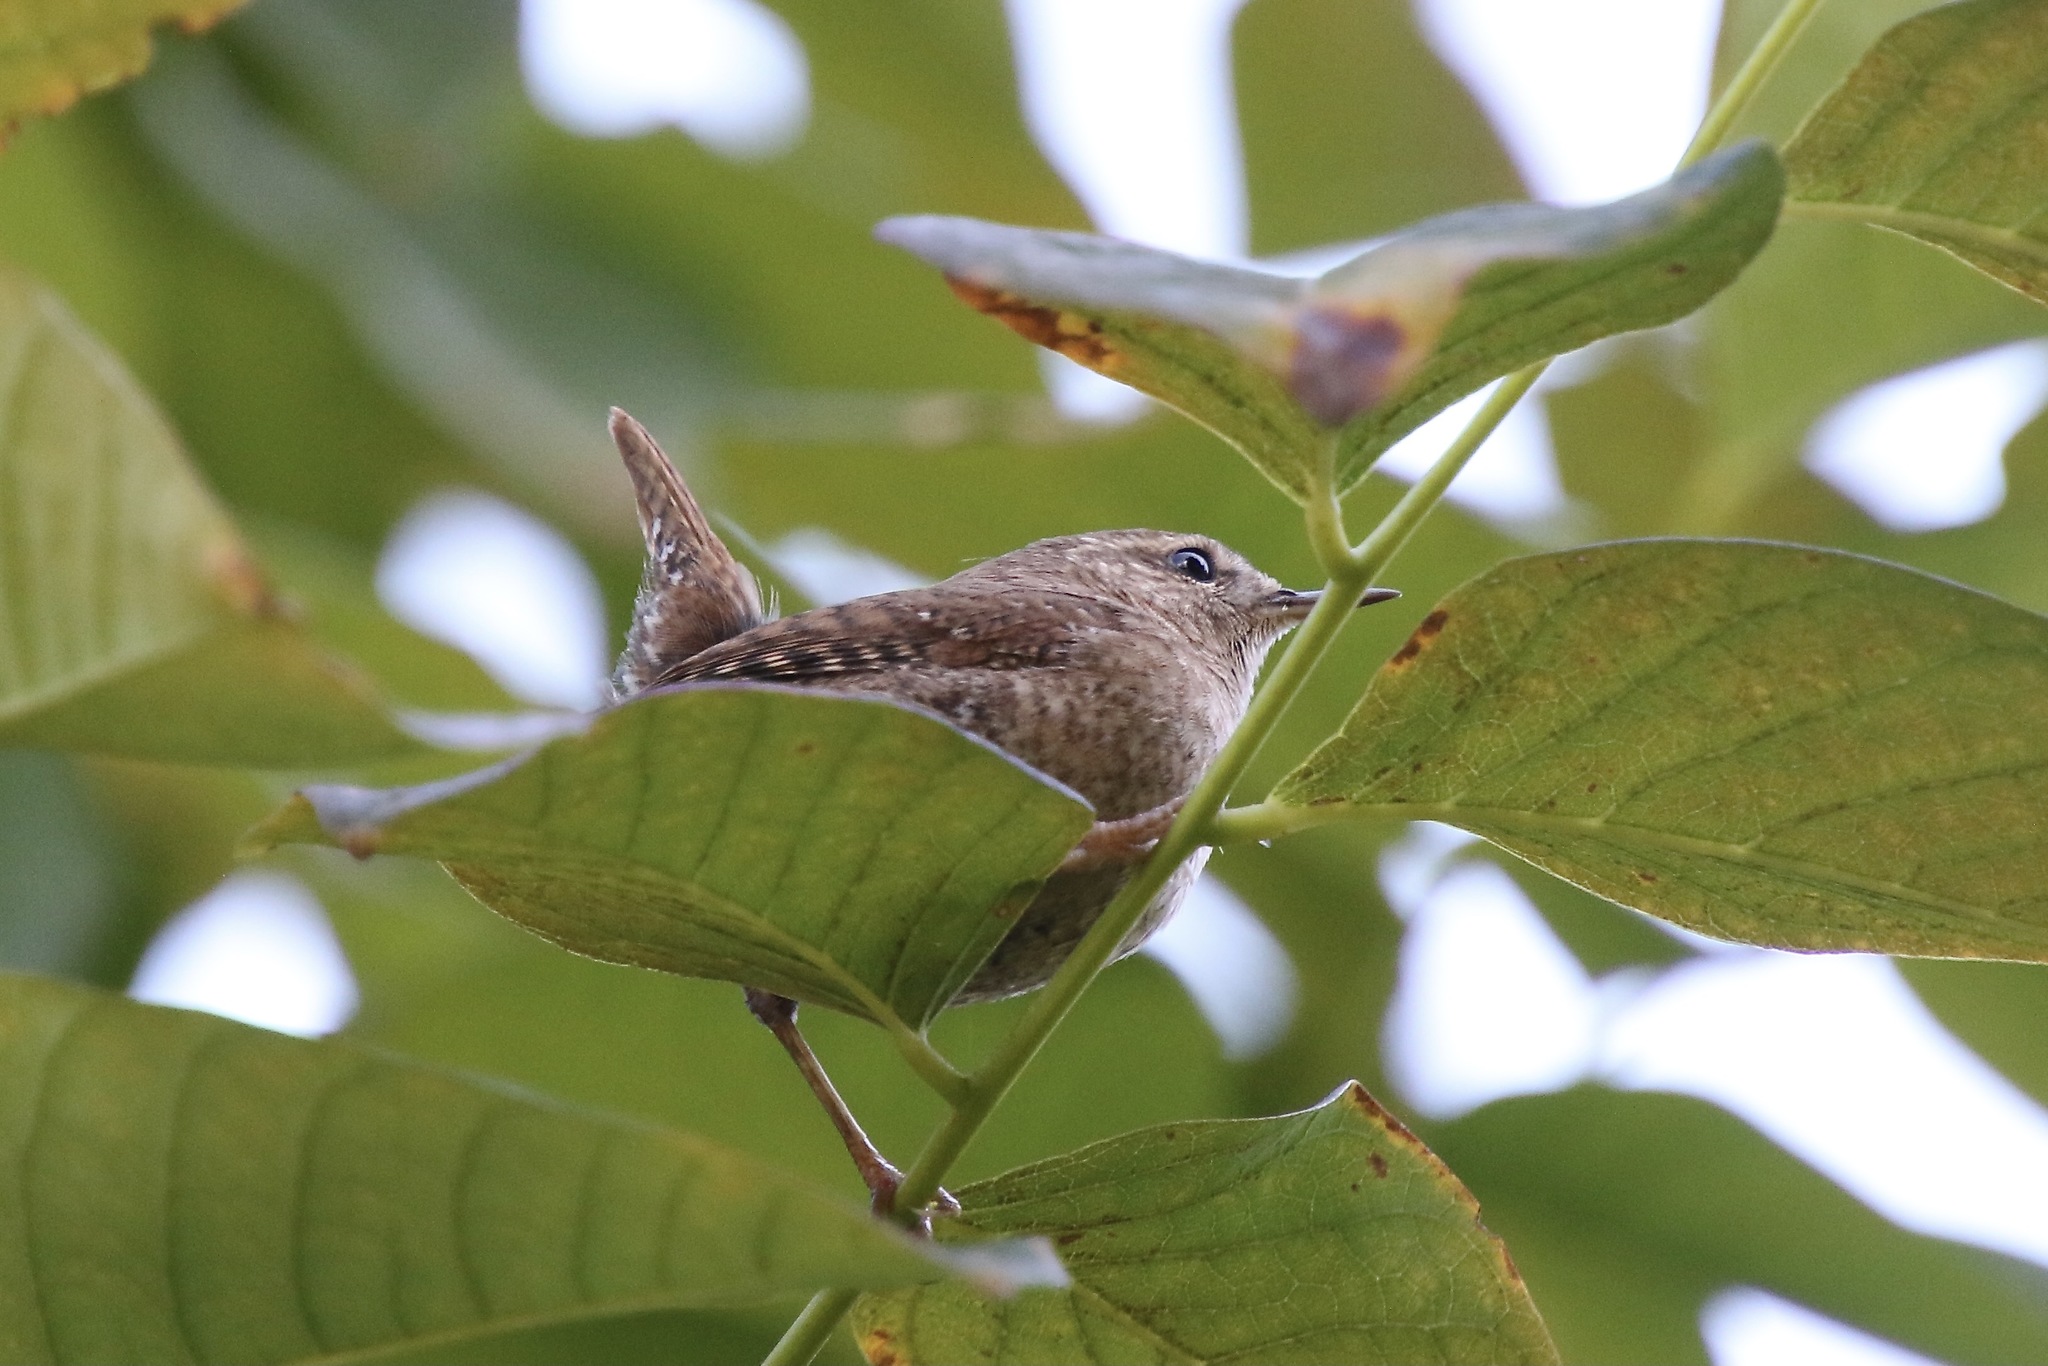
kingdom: Animalia
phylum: Chordata
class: Aves
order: Passeriformes
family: Troglodytidae
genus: Troglodytes
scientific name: Troglodytes hiemalis
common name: Winter wren
